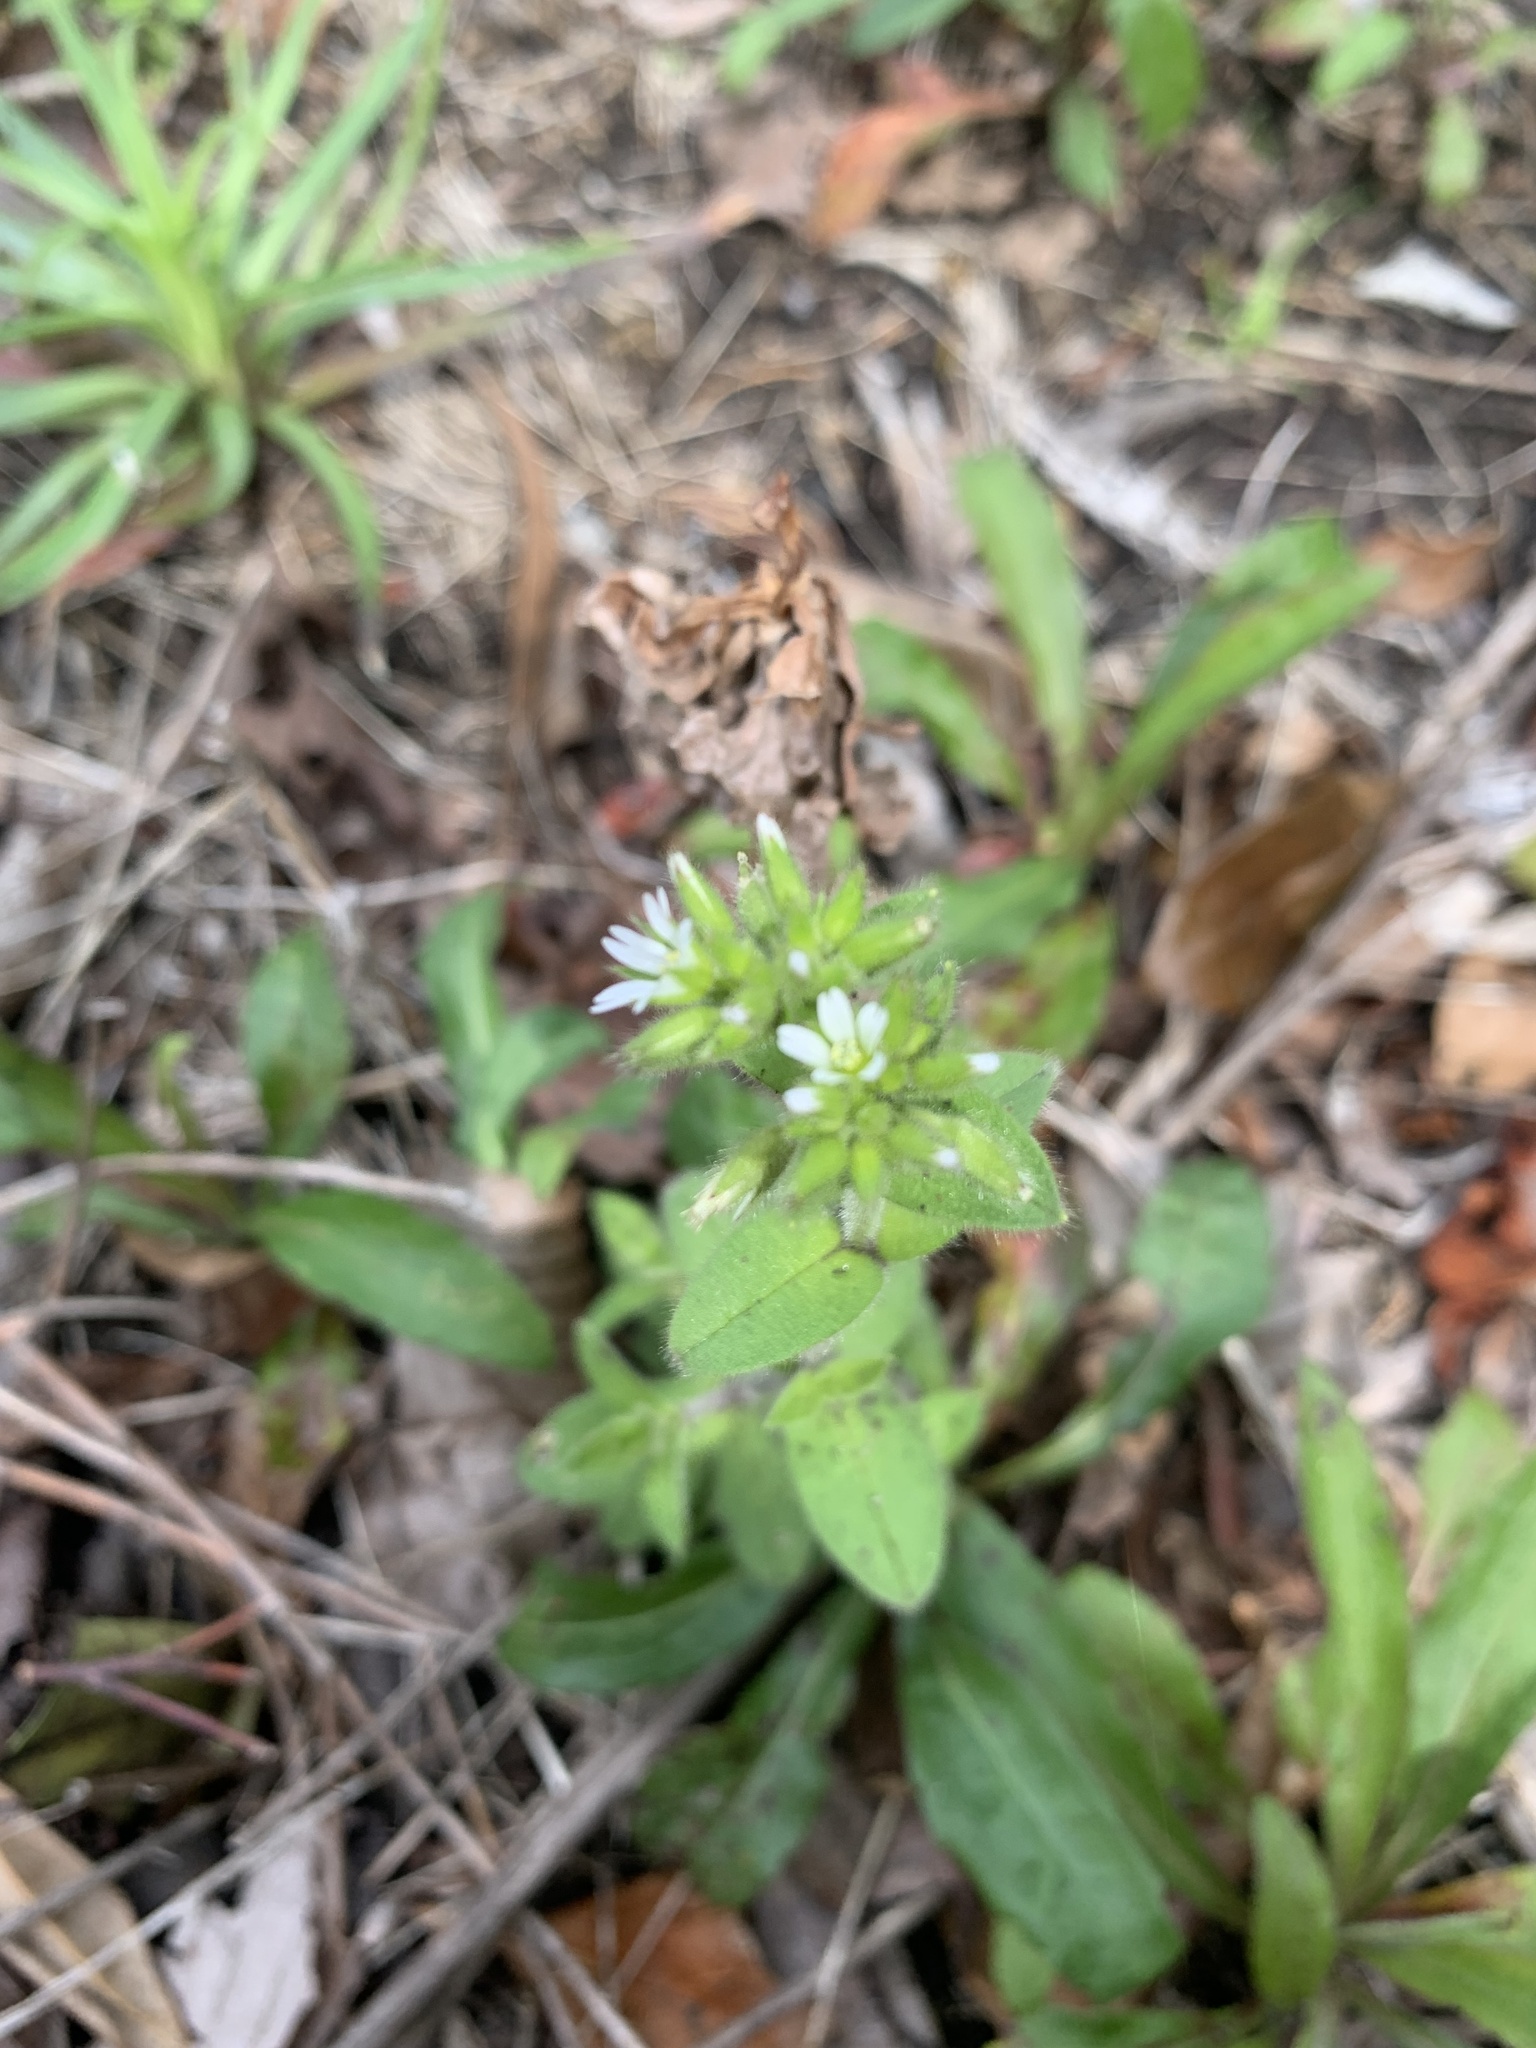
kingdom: Plantae
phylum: Tracheophyta
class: Magnoliopsida
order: Caryophyllales
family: Caryophyllaceae
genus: Cerastium
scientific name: Cerastium glomeratum
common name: Sticky chickweed
